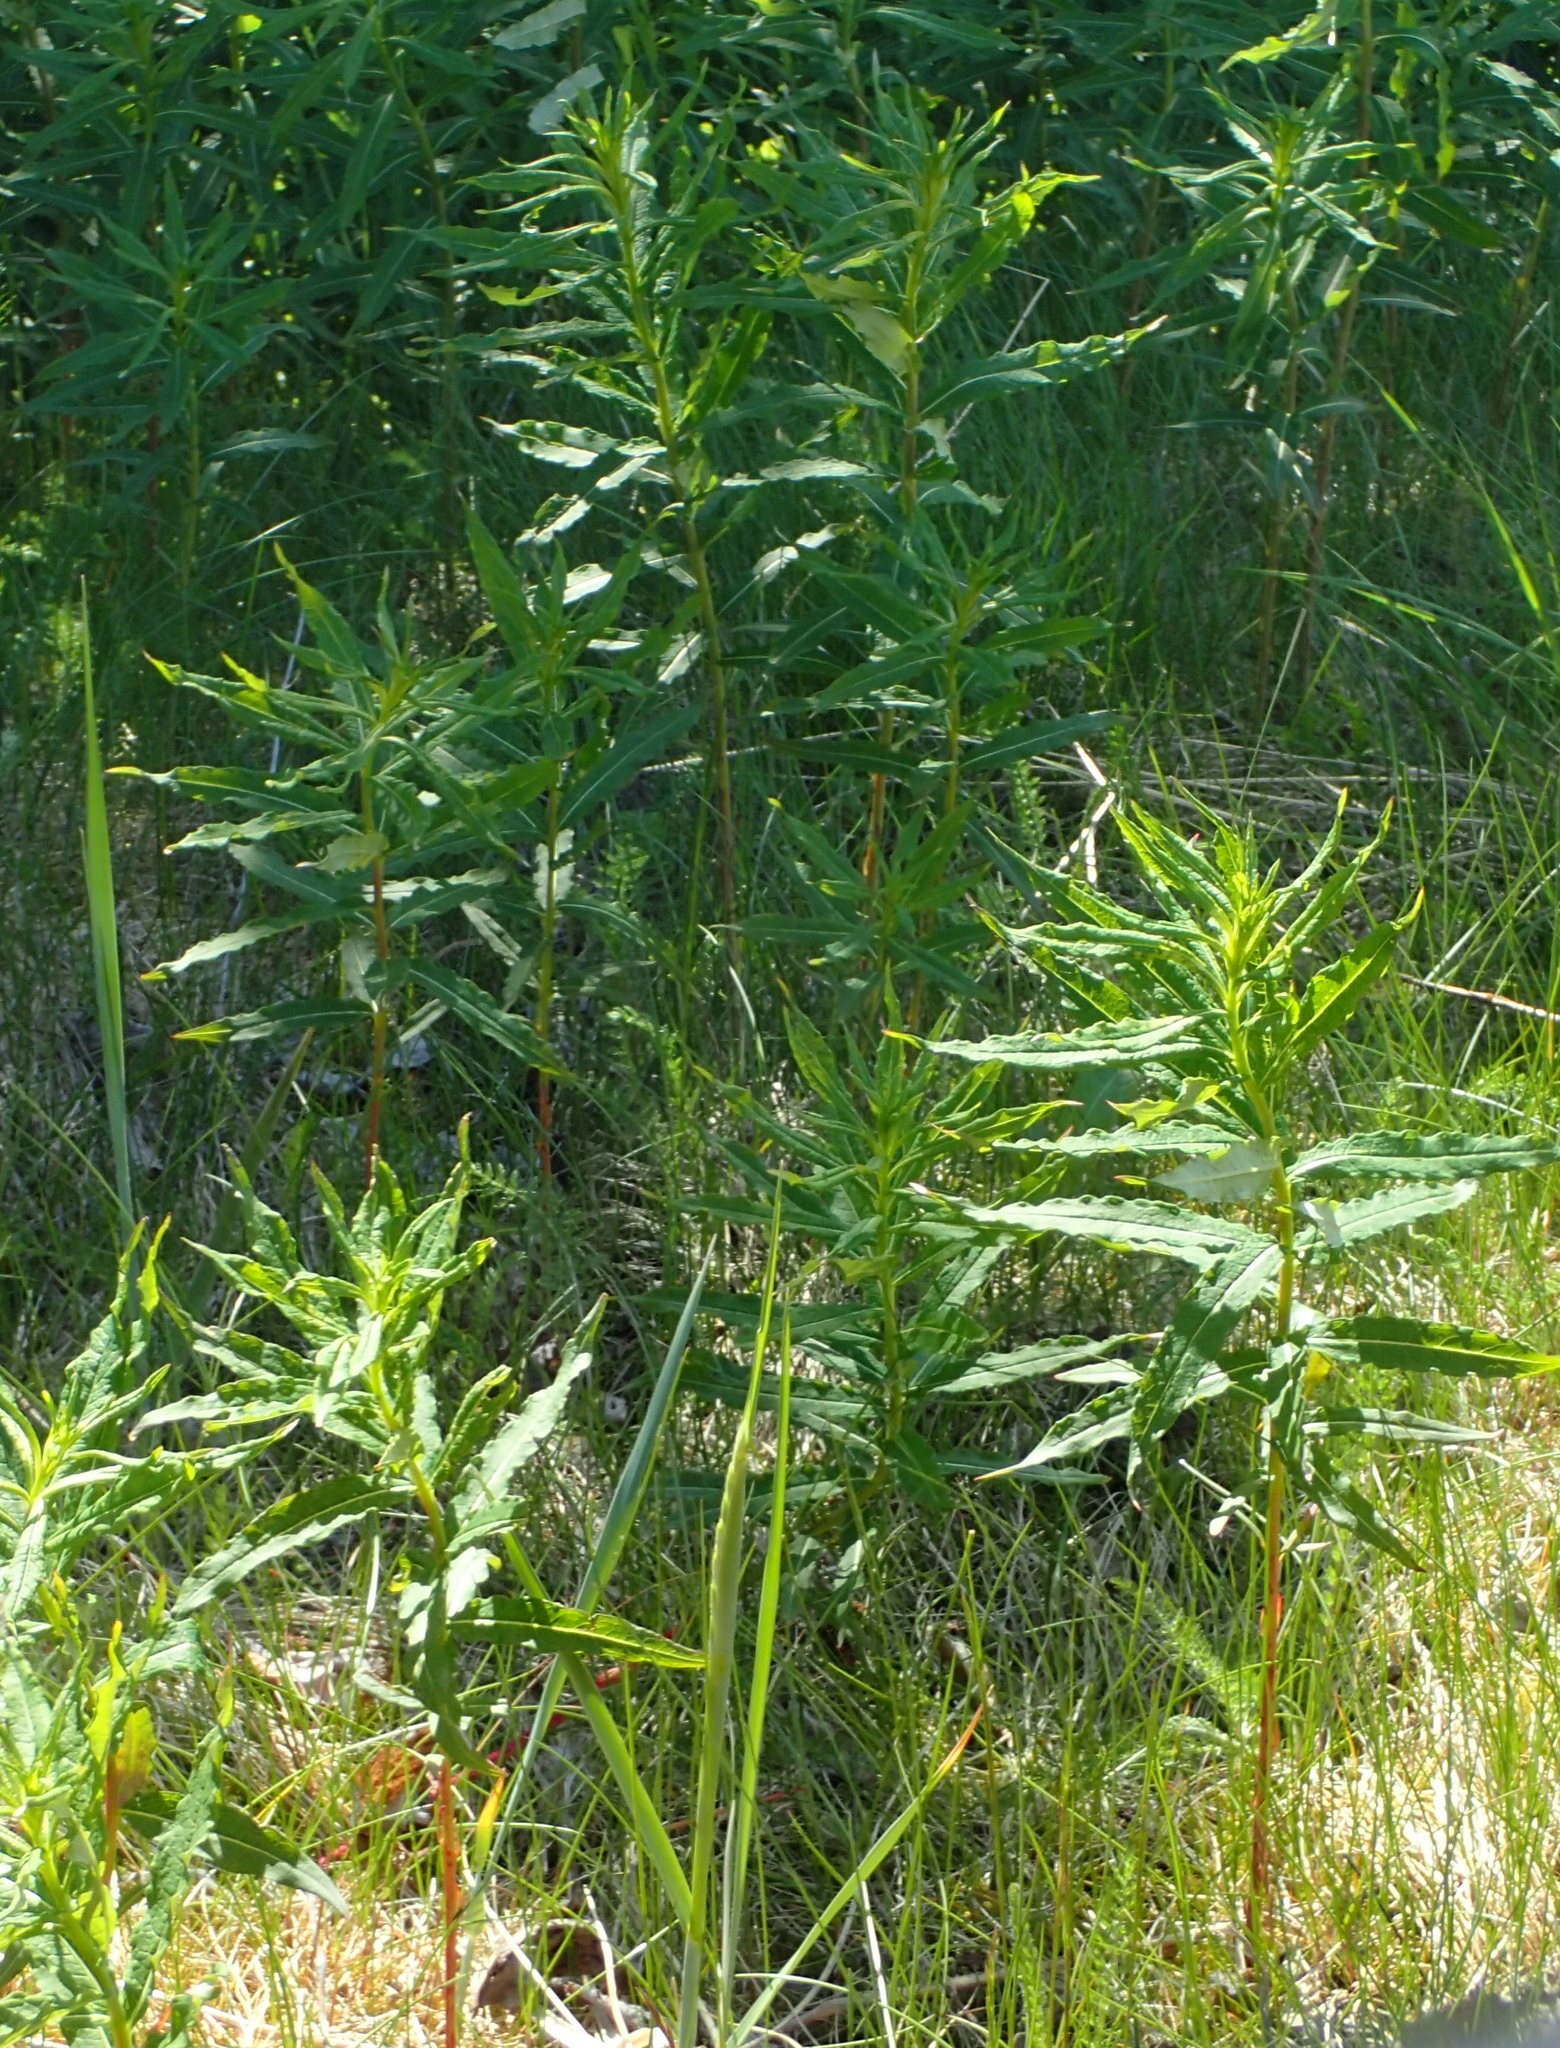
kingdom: Plantae
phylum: Tracheophyta
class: Magnoliopsida
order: Myrtales
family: Onagraceae
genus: Chamaenerion
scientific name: Chamaenerion angustifolium
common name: Fireweed
